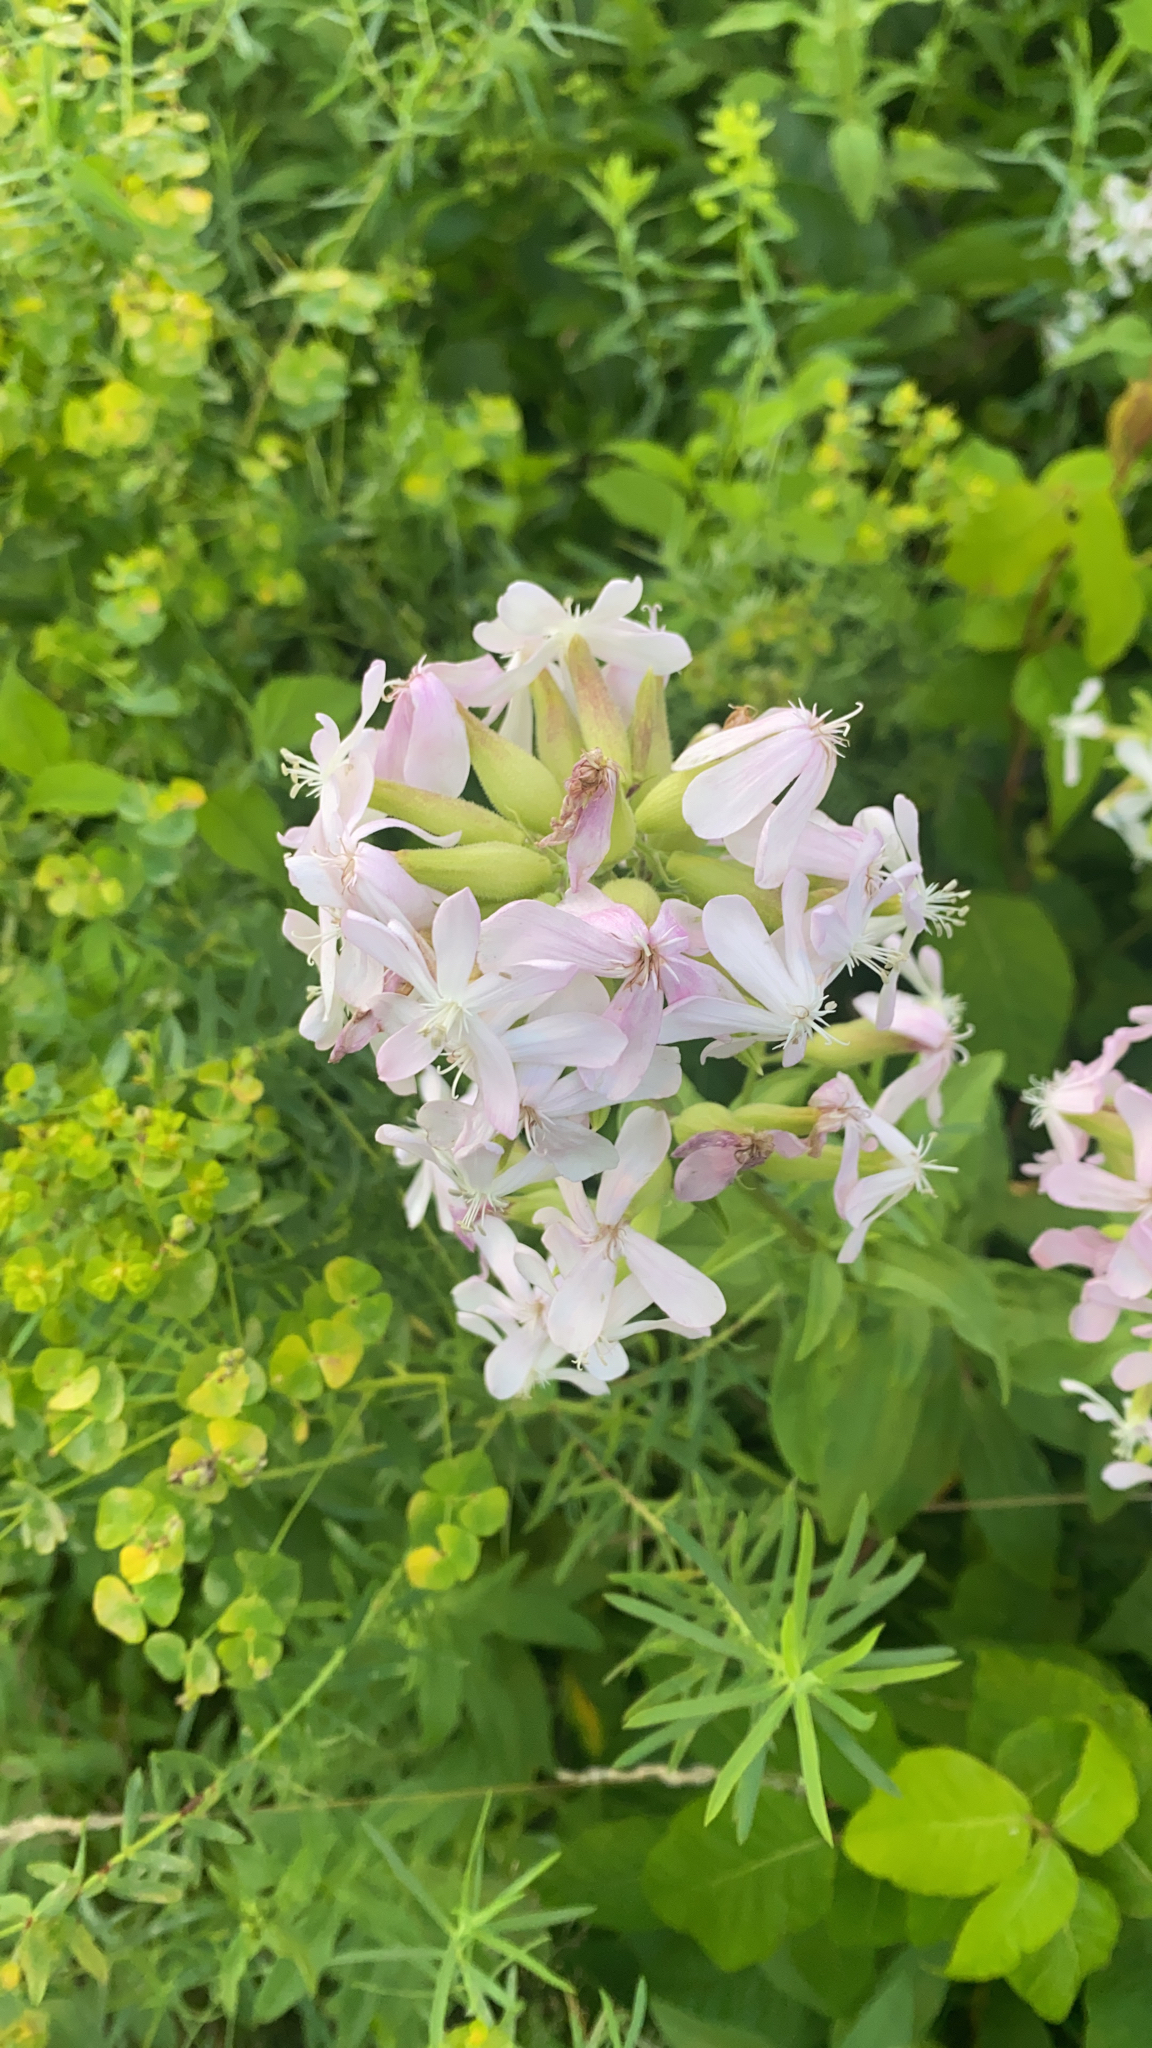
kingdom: Plantae
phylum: Tracheophyta
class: Magnoliopsida
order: Caryophyllales
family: Caryophyllaceae
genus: Saponaria
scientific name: Saponaria officinalis
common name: Soapwort
